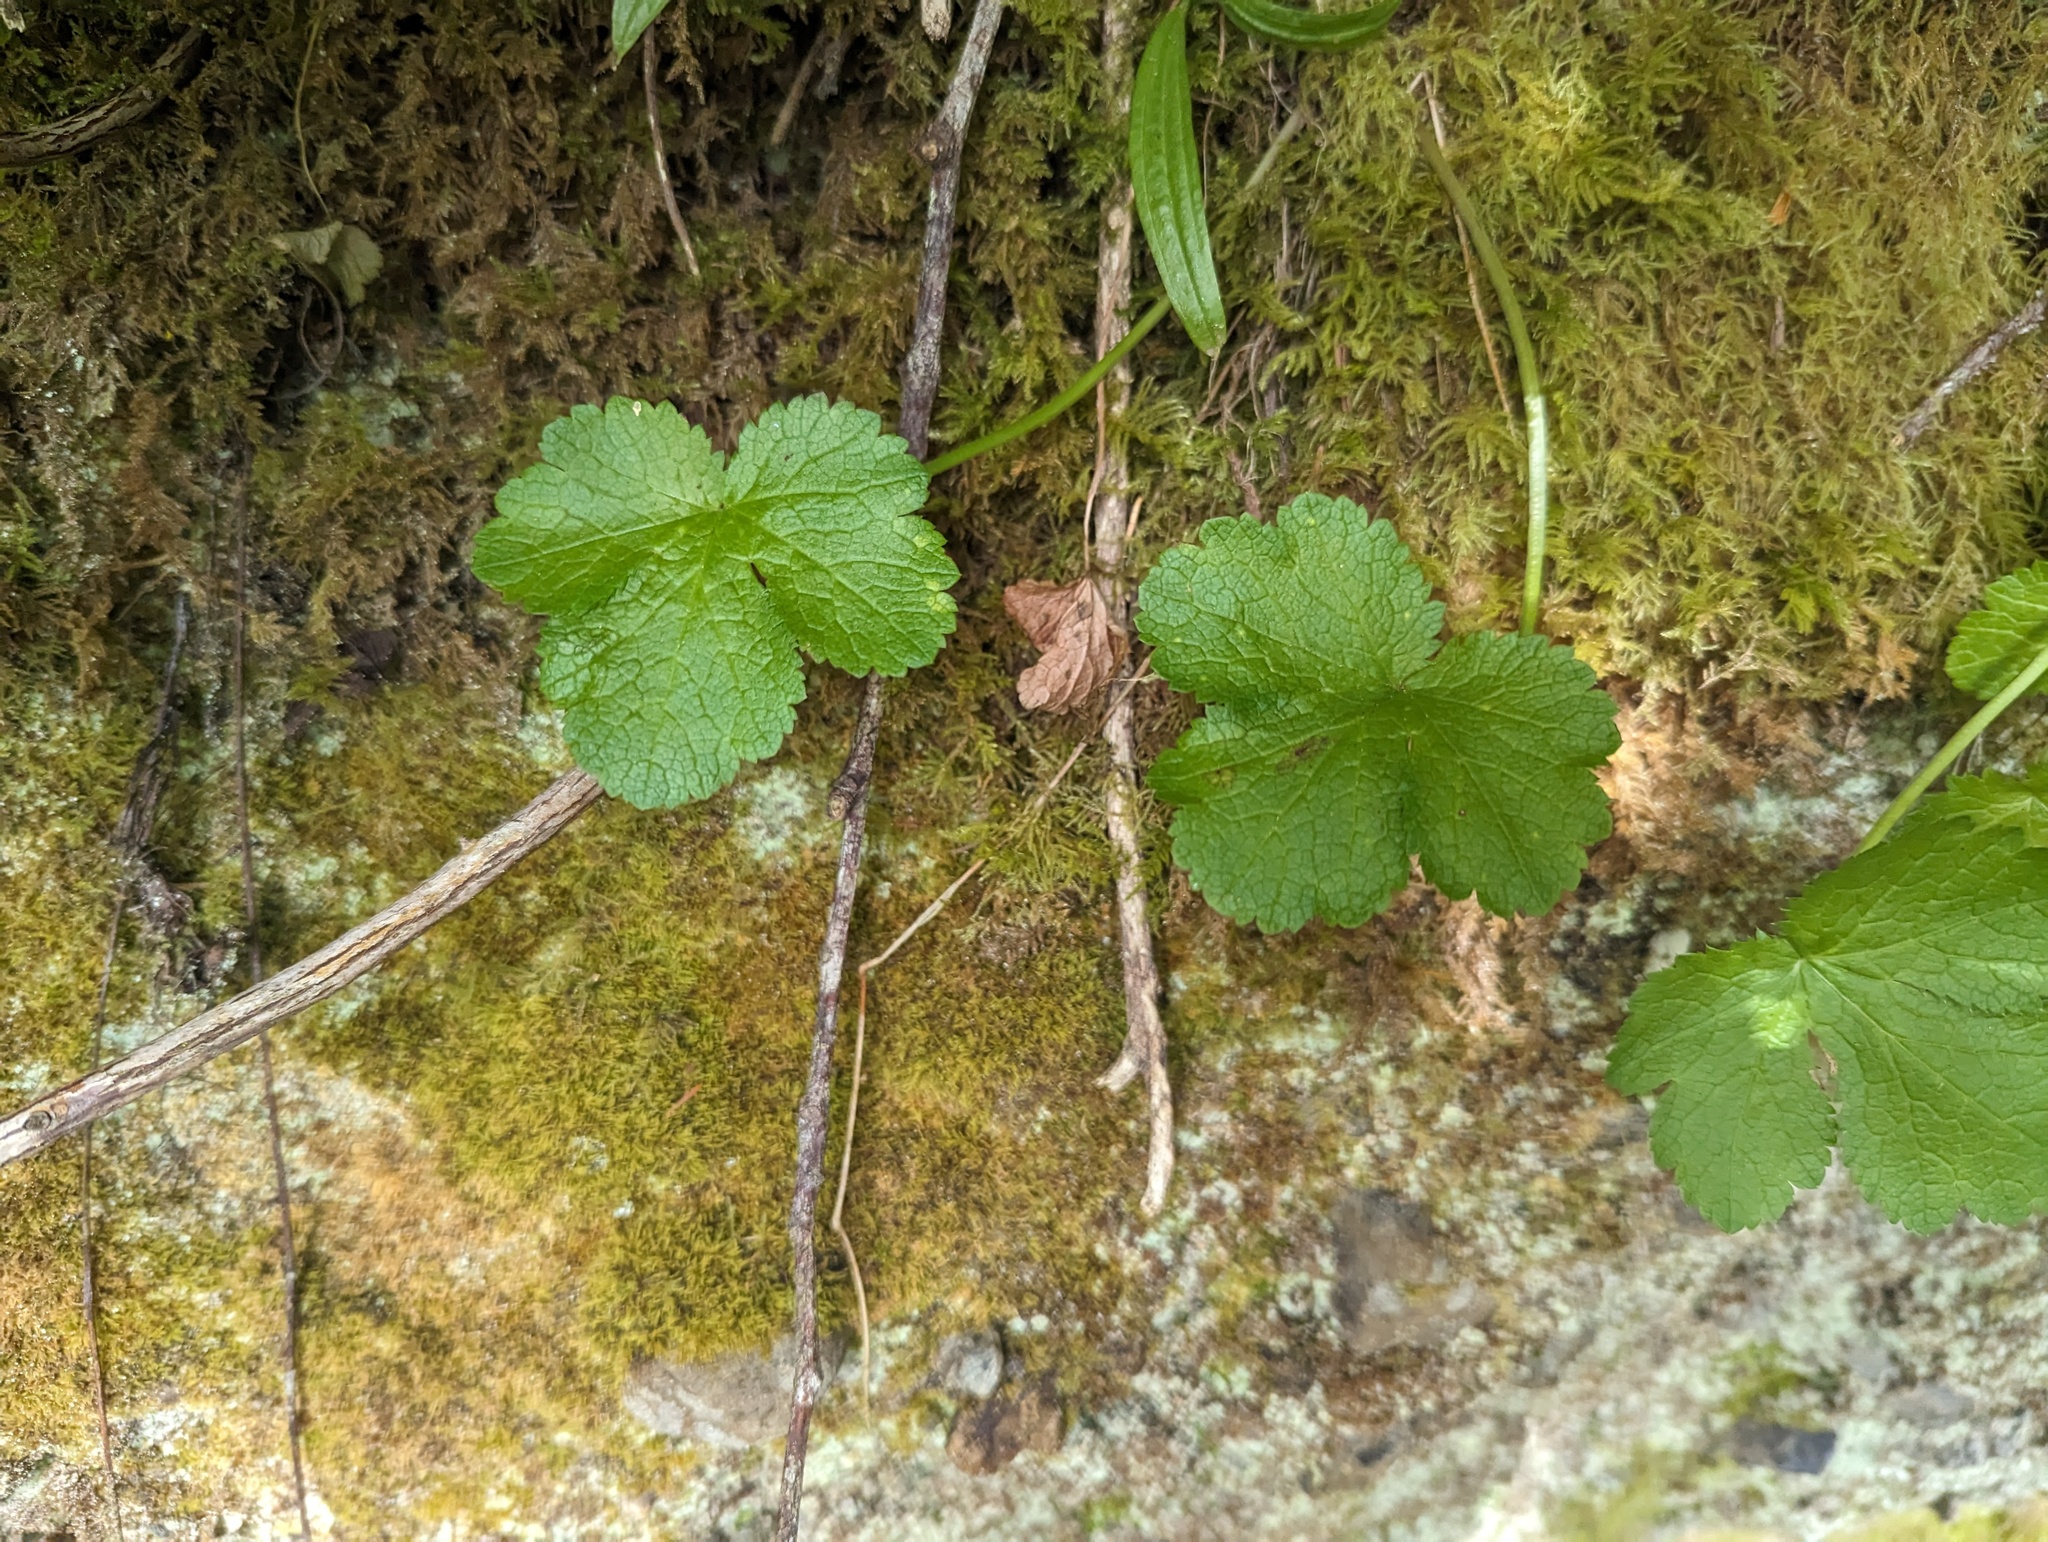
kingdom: Plantae
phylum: Tracheophyta
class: Magnoliopsida
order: Apiales
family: Apiaceae
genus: Sanicula
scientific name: Sanicula crassicaulis
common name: Western snakeroot
